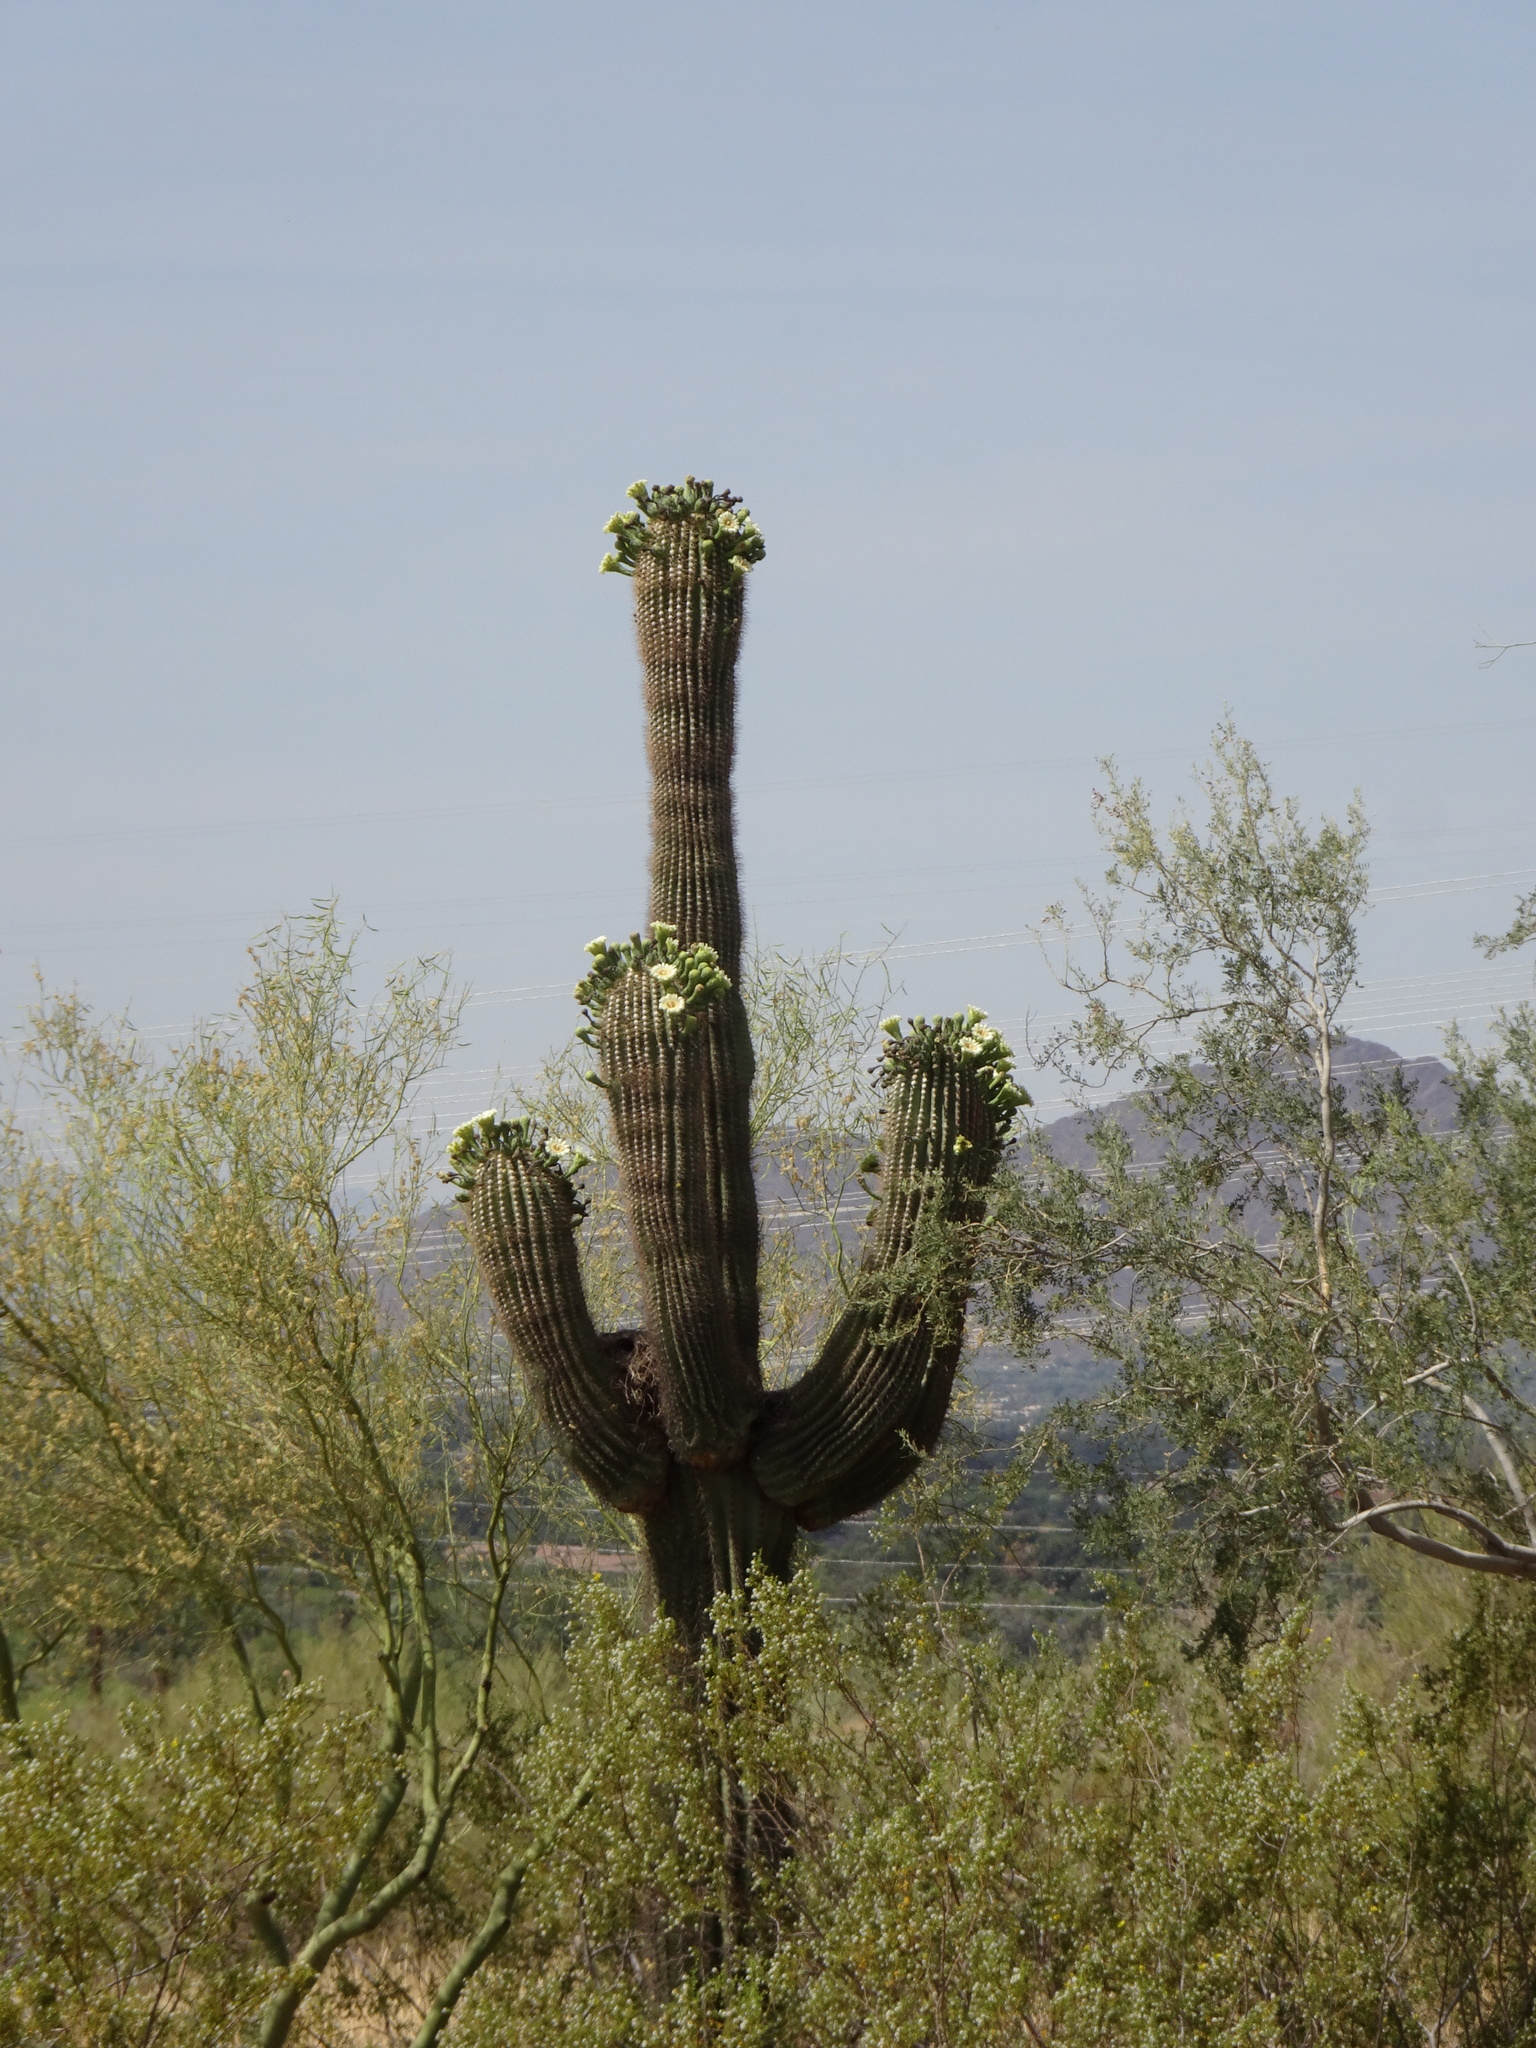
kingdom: Plantae
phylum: Tracheophyta
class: Magnoliopsida
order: Caryophyllales
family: Cactaceae
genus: Carnegiea
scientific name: Carnegiea gigantea
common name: Saguaro
